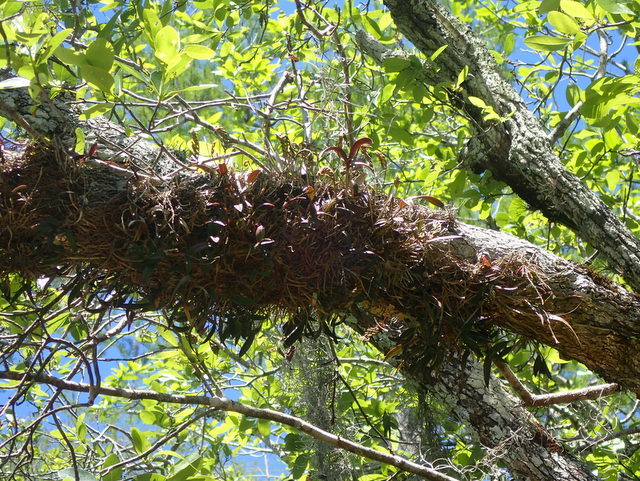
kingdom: Plantae
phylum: Tracheophyta
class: Liliopsida
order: Asparagales
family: Orchidaceae
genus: Epidendrum
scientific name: Epidendrum conopseum
